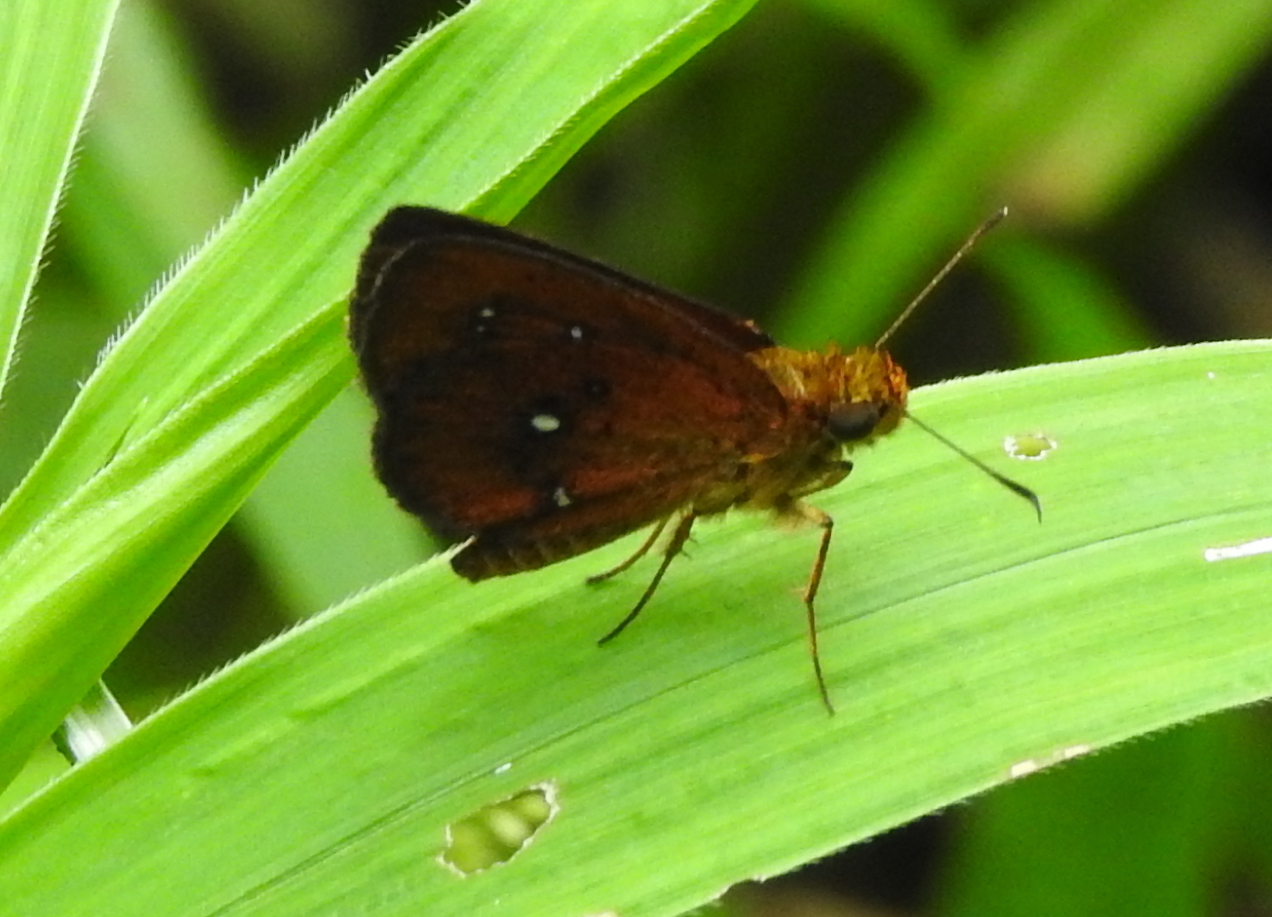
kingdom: Animalia
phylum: Arthropoda
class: Insecta
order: Lepidoptera
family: Hesperiidae
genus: Iambrix
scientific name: Iambrix salsala
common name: Chestnut bob
